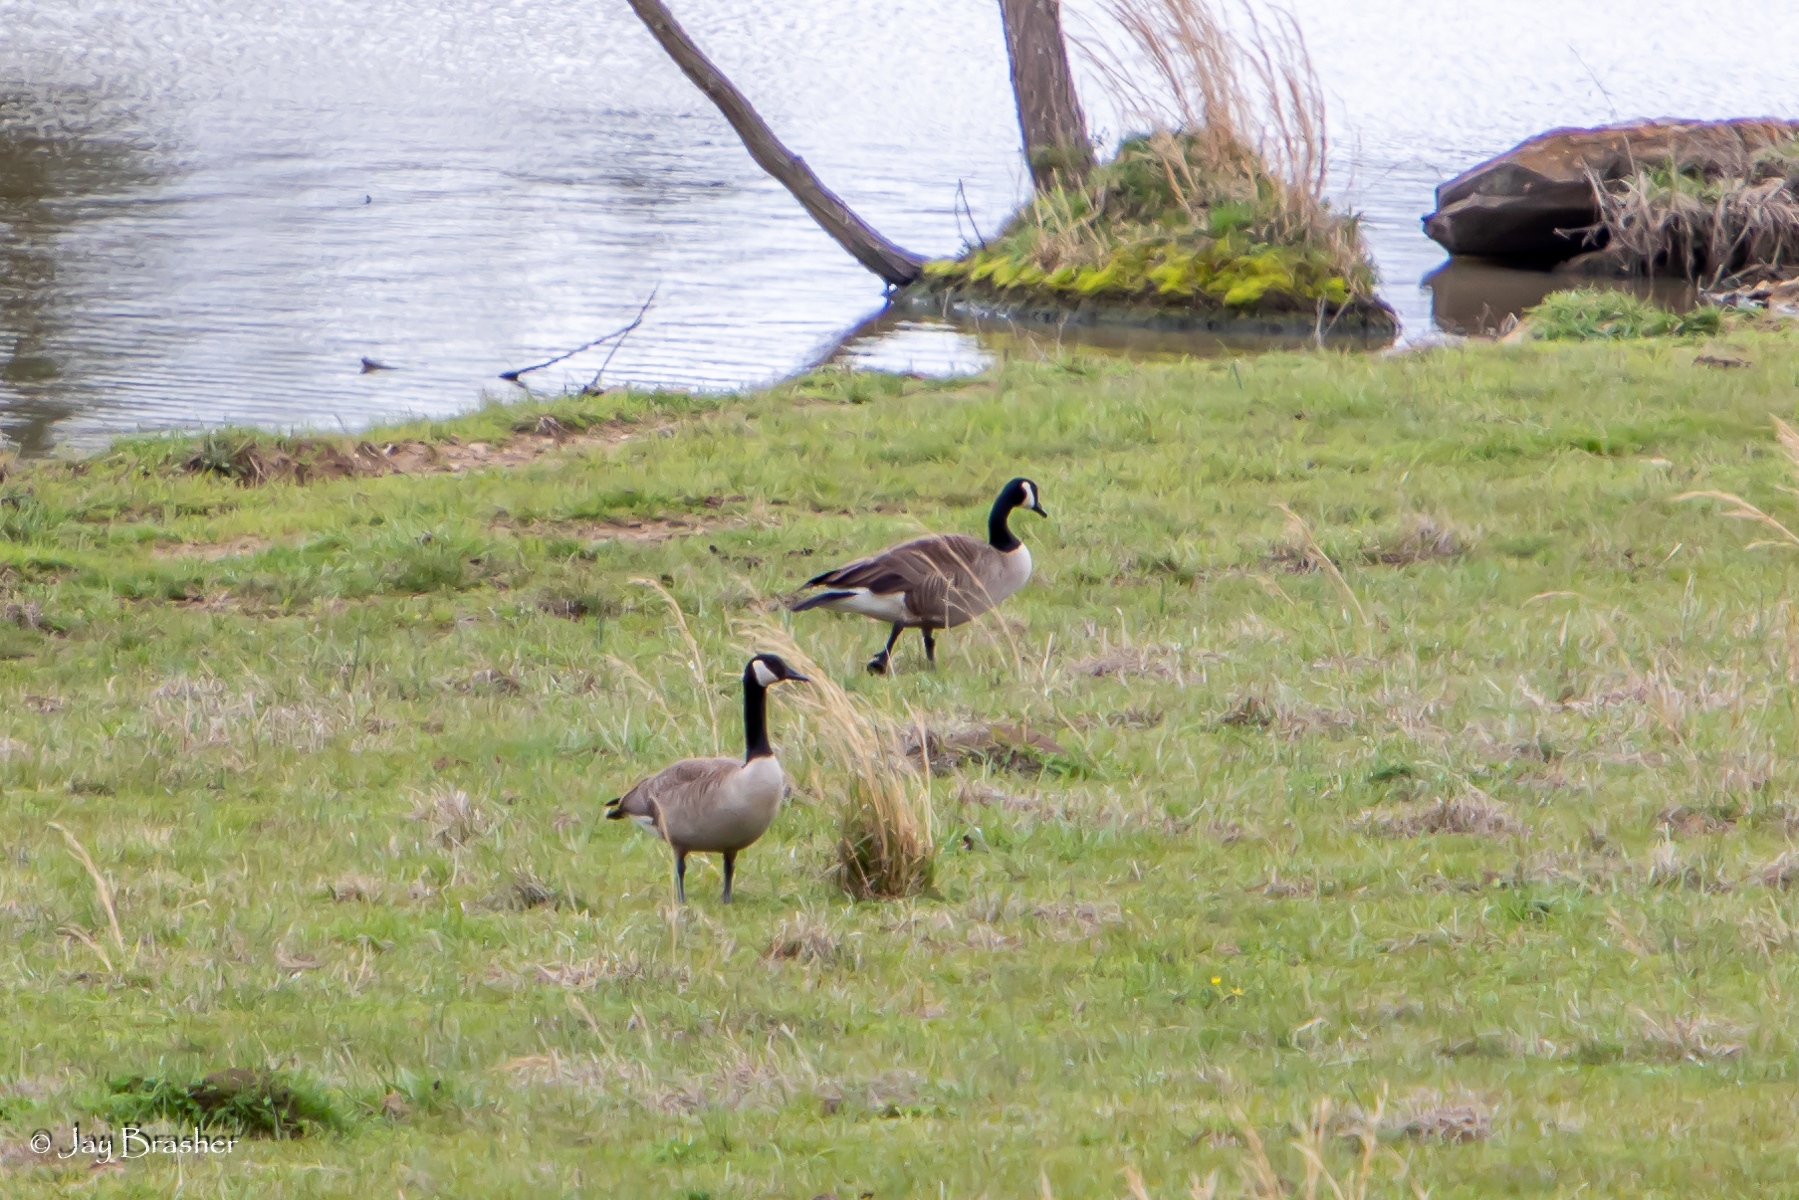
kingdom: Animalia
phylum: Chordata
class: Aves
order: Anseriformes
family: Anatidae
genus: Branta
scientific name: Branta canadensis
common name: Canada goose
